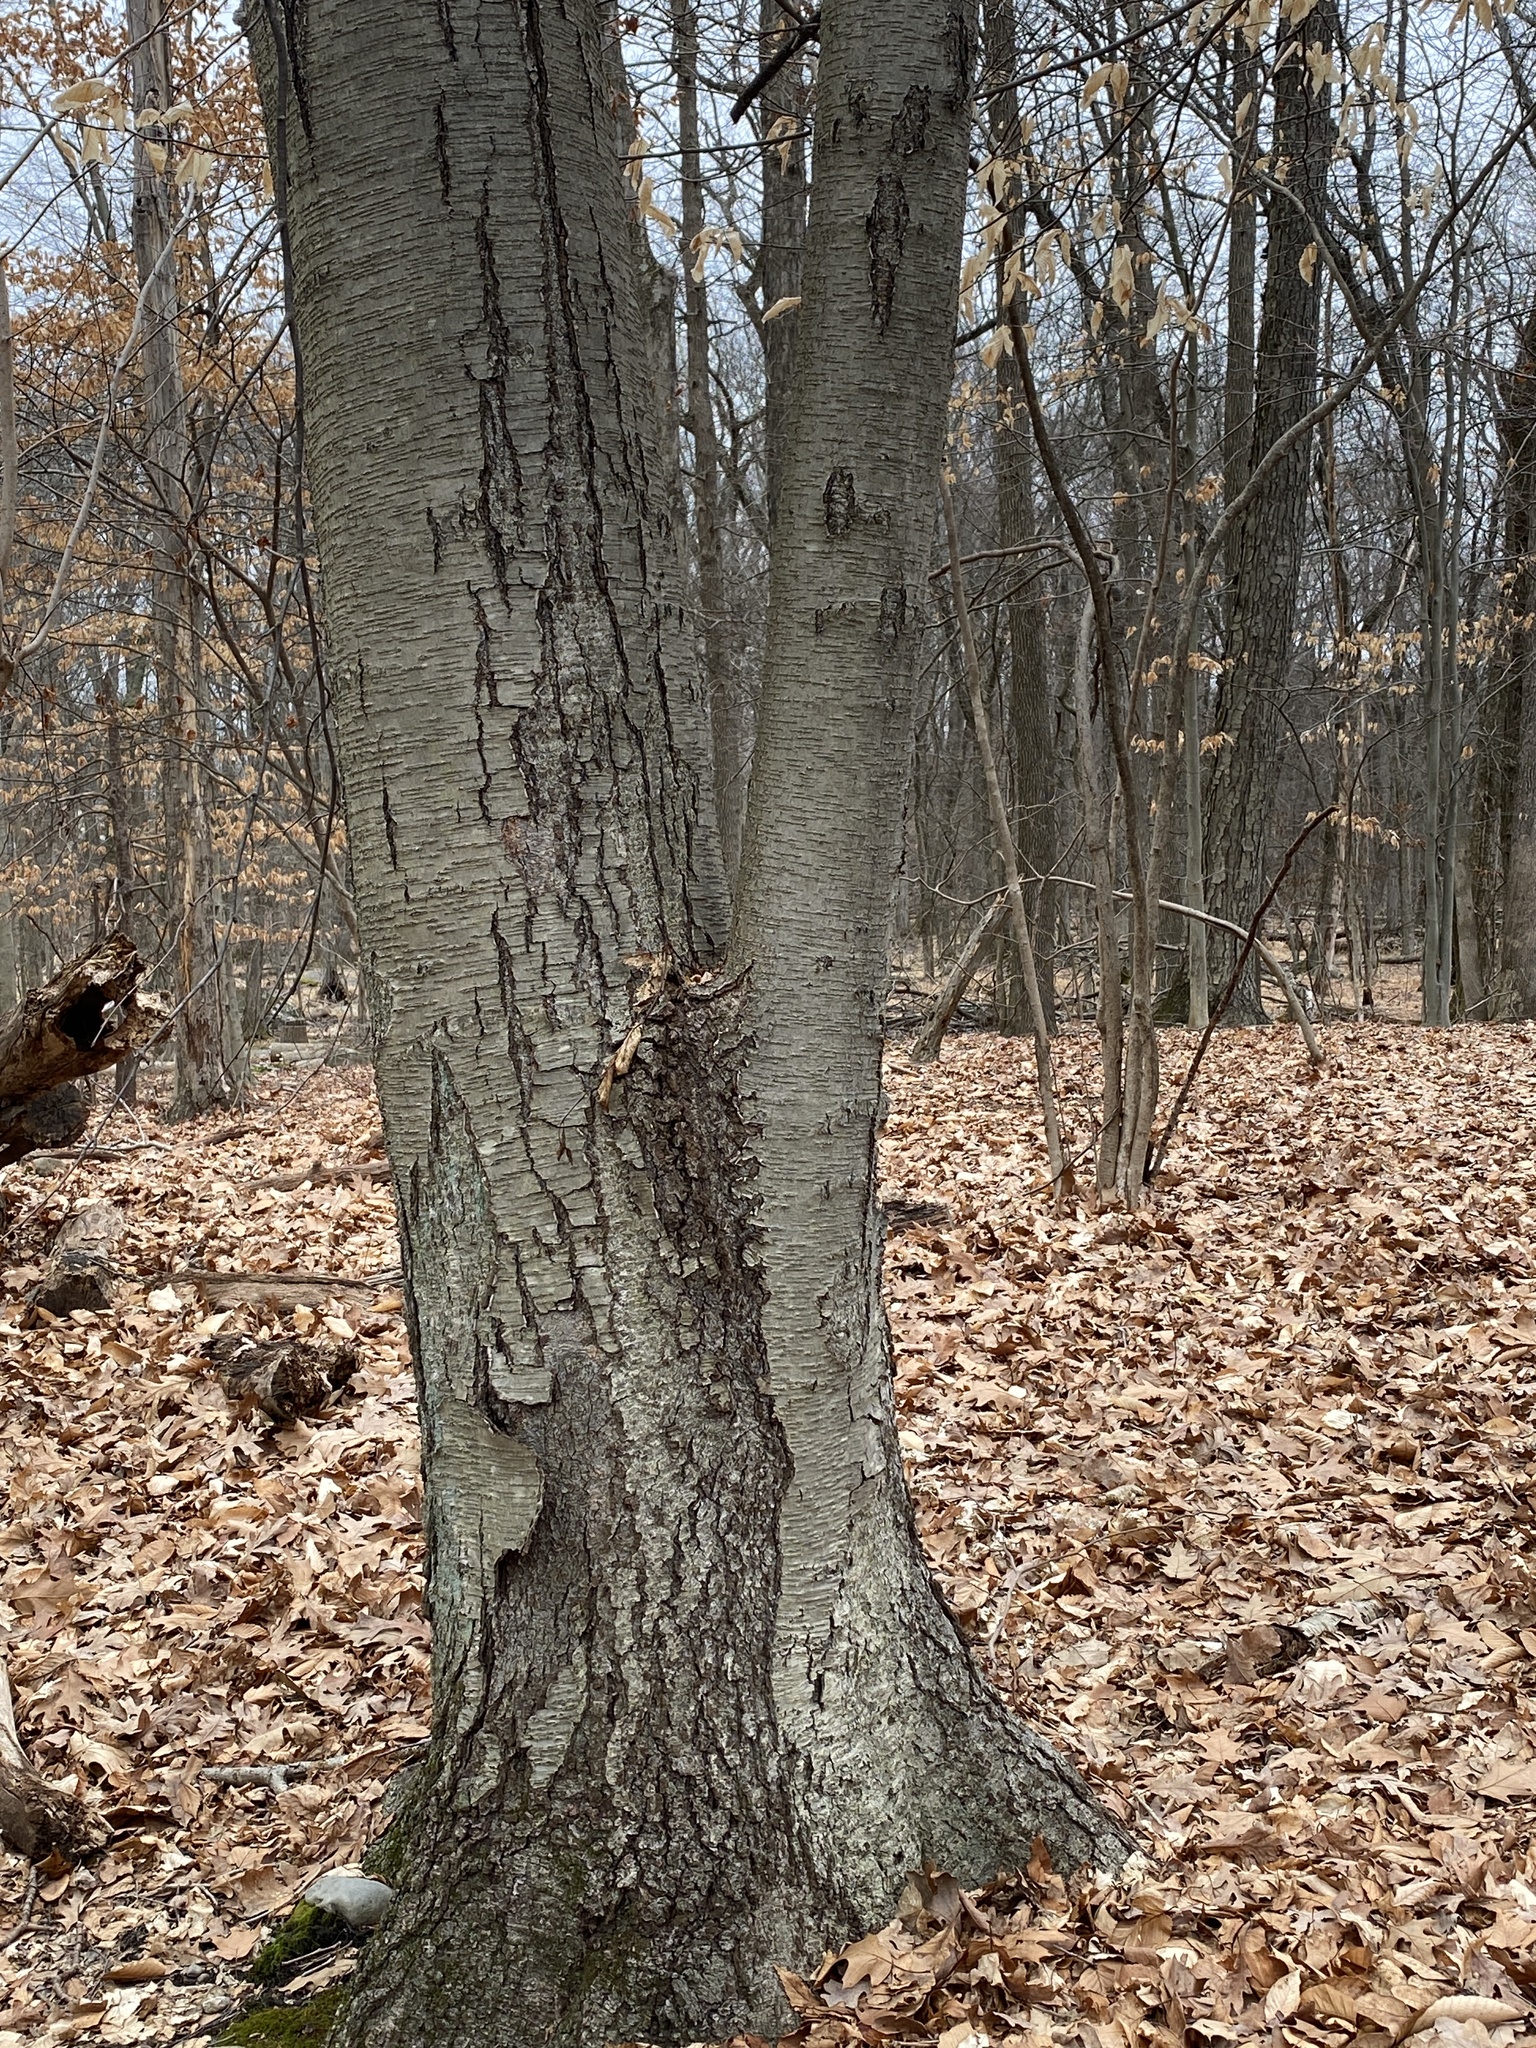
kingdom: Plantae
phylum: Tracheophyta
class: Magnoliopsida
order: Fagales
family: Betulaceae
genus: Betula
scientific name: Betula lenta
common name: Black birch
